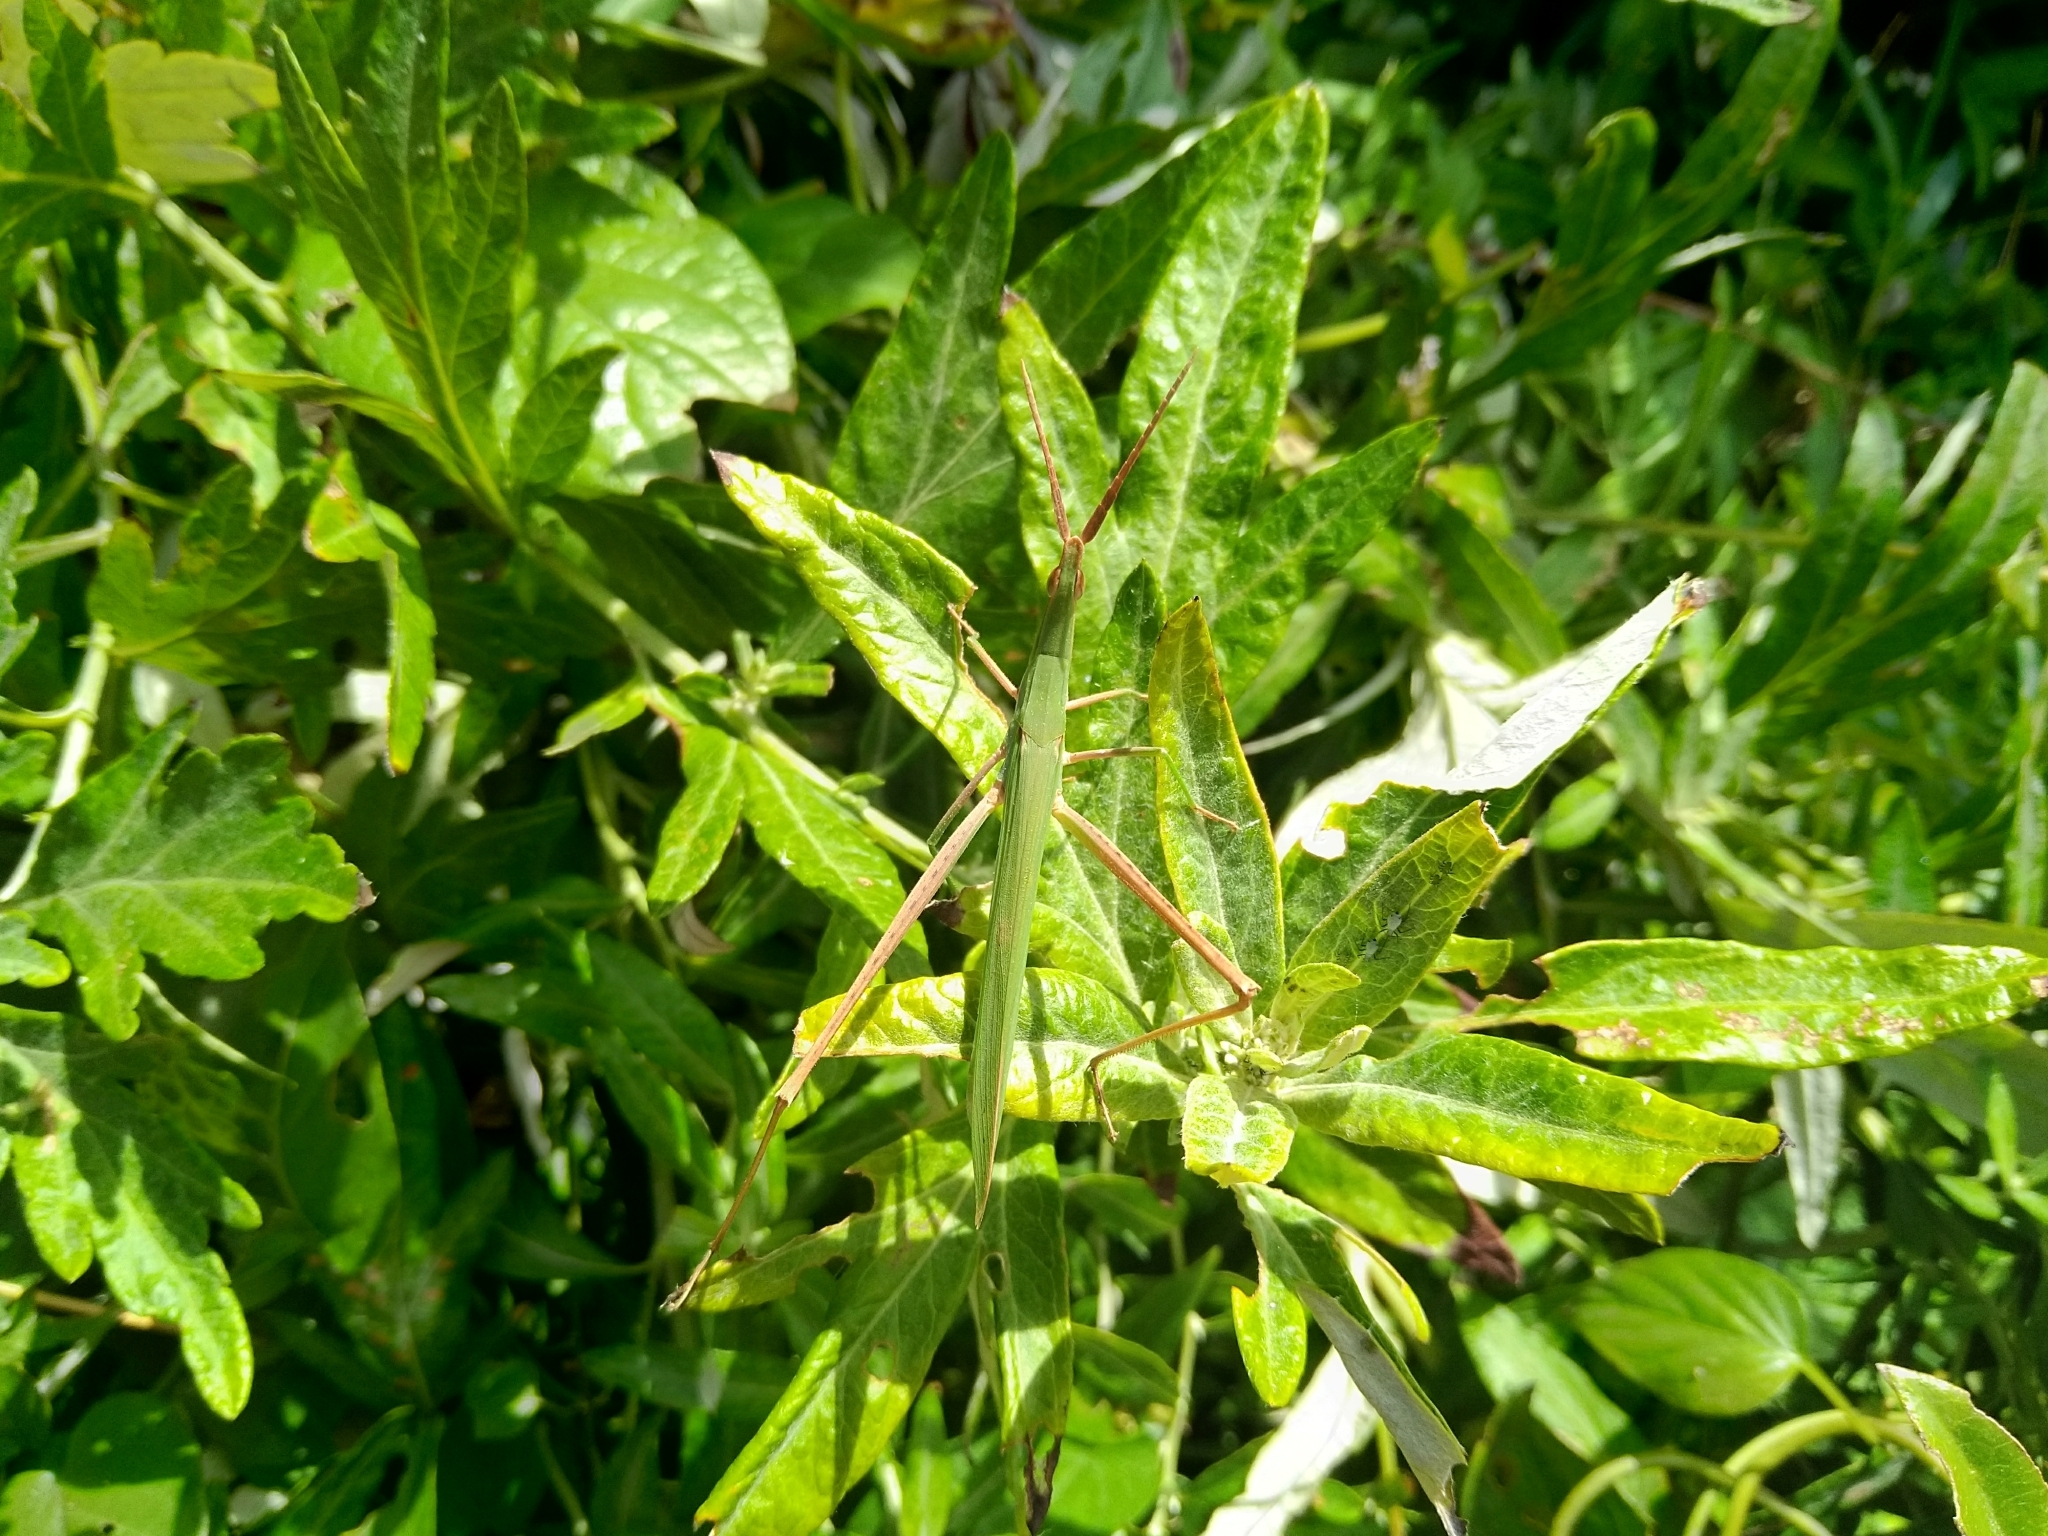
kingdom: Animalia
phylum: Arthropoda
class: Insecta
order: Orthoptera
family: Acrididae
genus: Acrida
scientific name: Acrida cinerea
